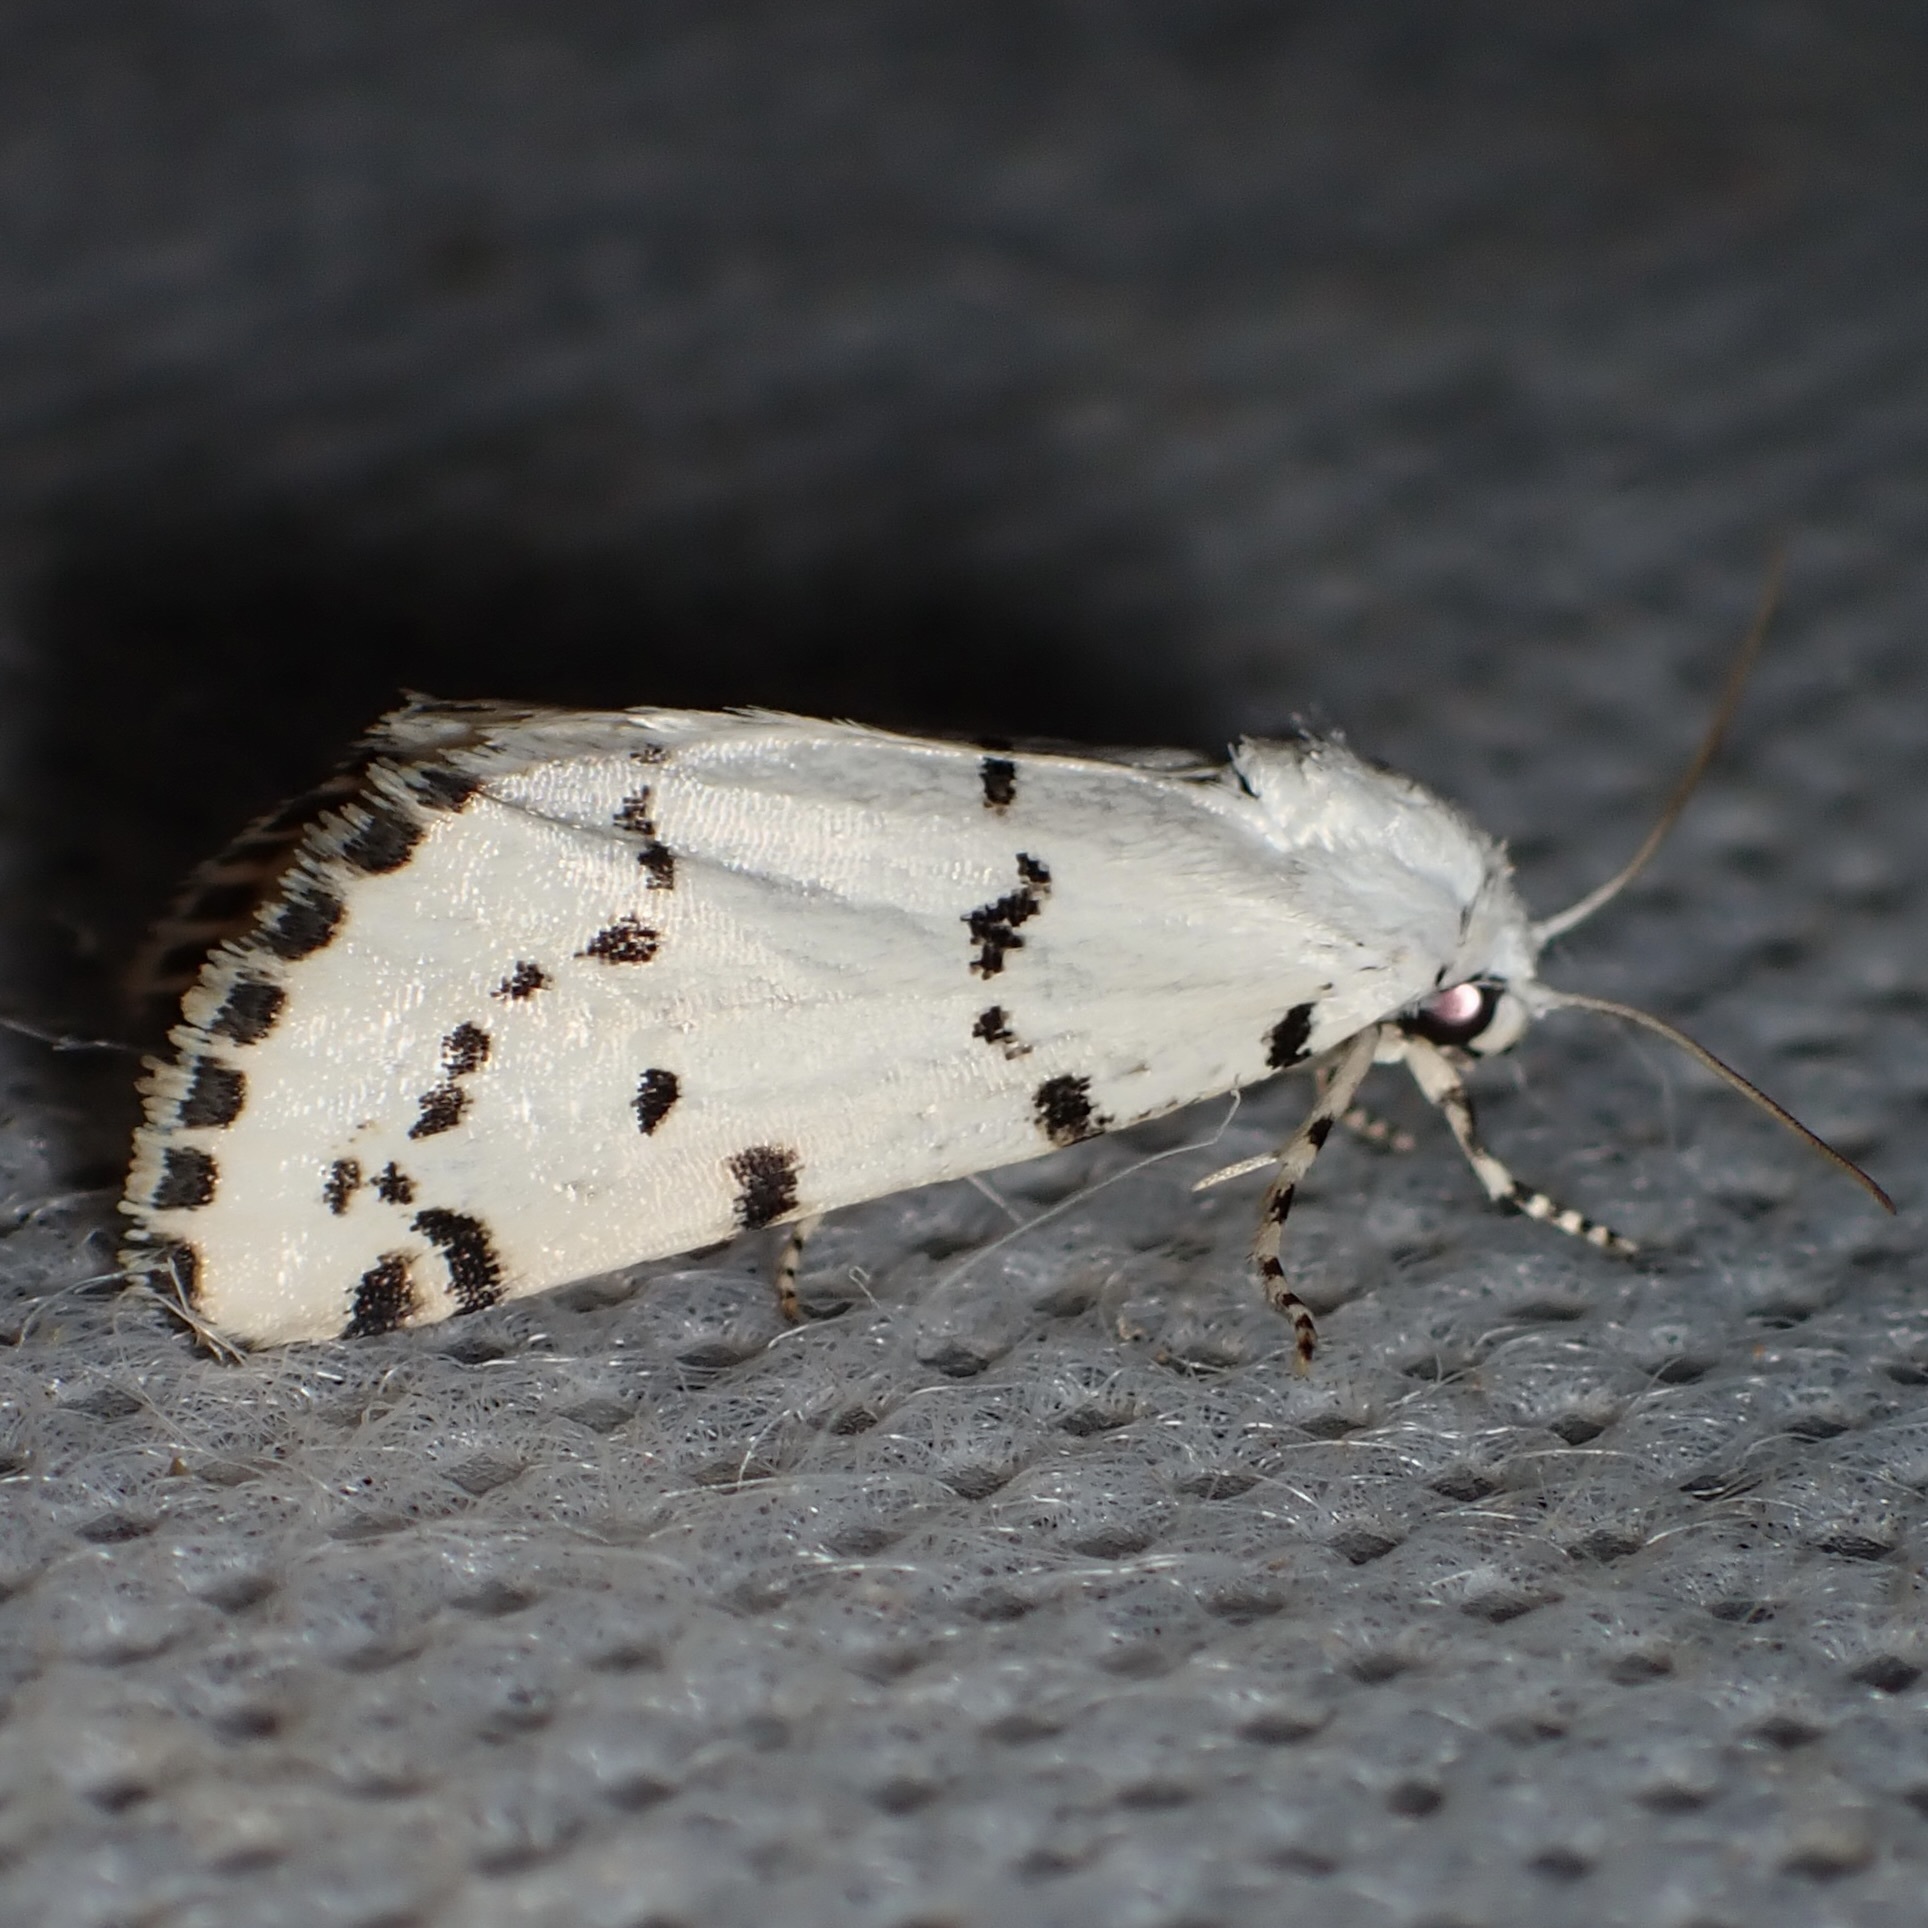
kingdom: Animalia
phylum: Arthropoda
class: Insecta
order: Lepidoptera
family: Noctuidae
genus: Grotella
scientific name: Grotella binda
